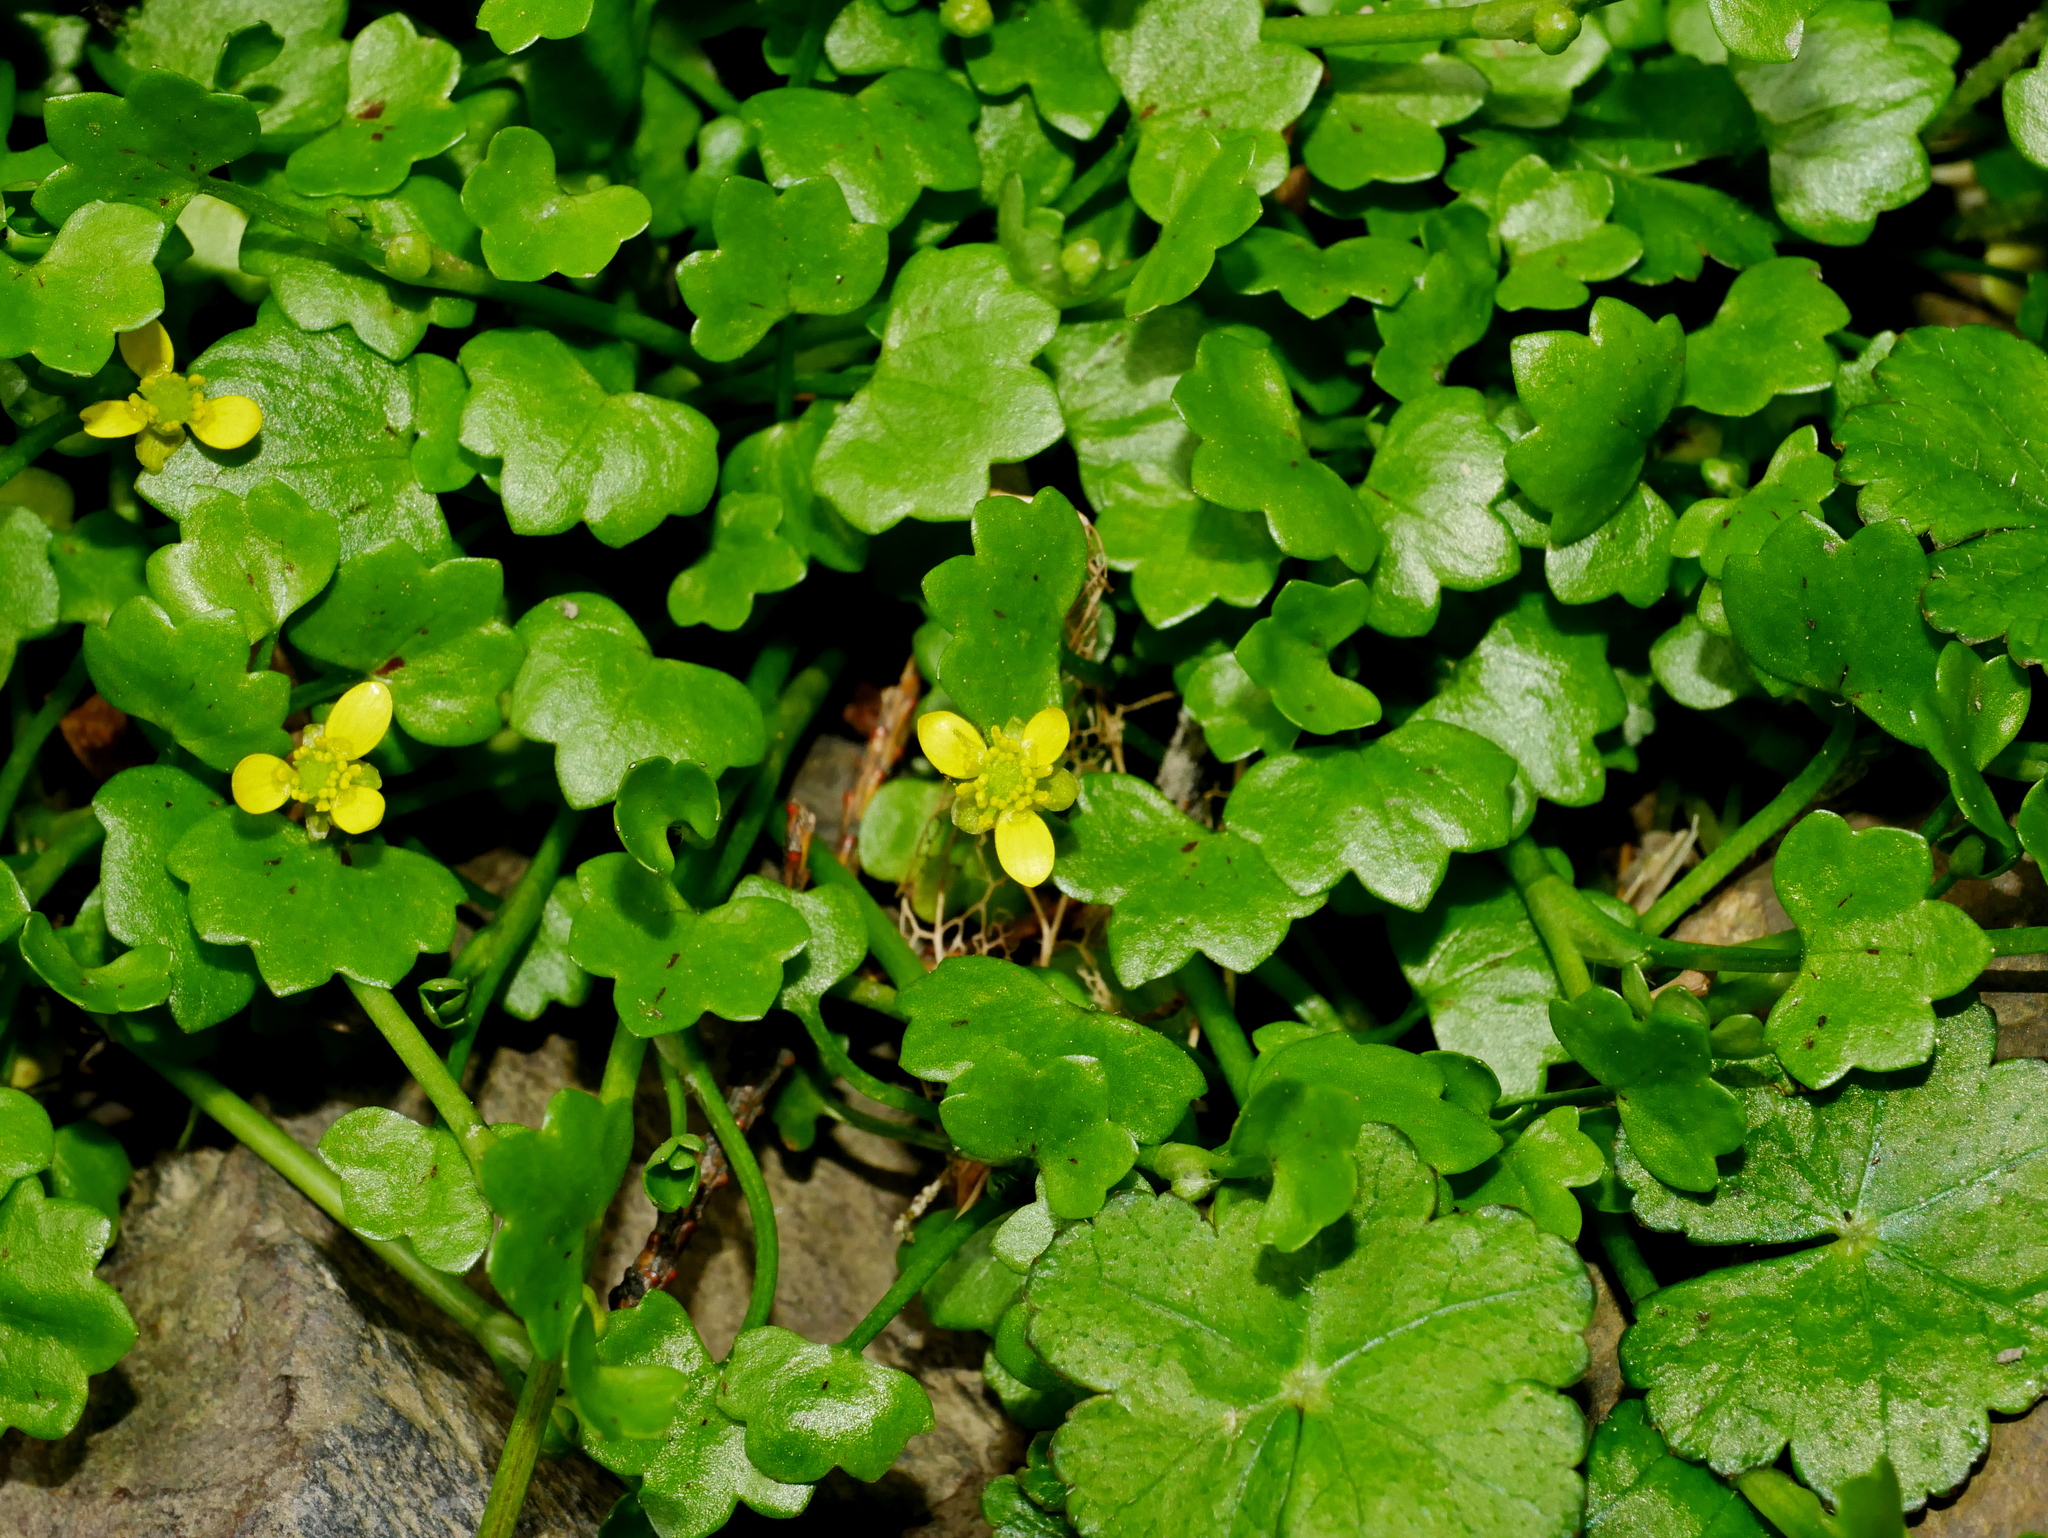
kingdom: Plantae
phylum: Tracheophyta
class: Magnoliopsida
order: Ranunculales
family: Ranunculaceae
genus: Ranunculus
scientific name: Ranunculus cheirophyllus
